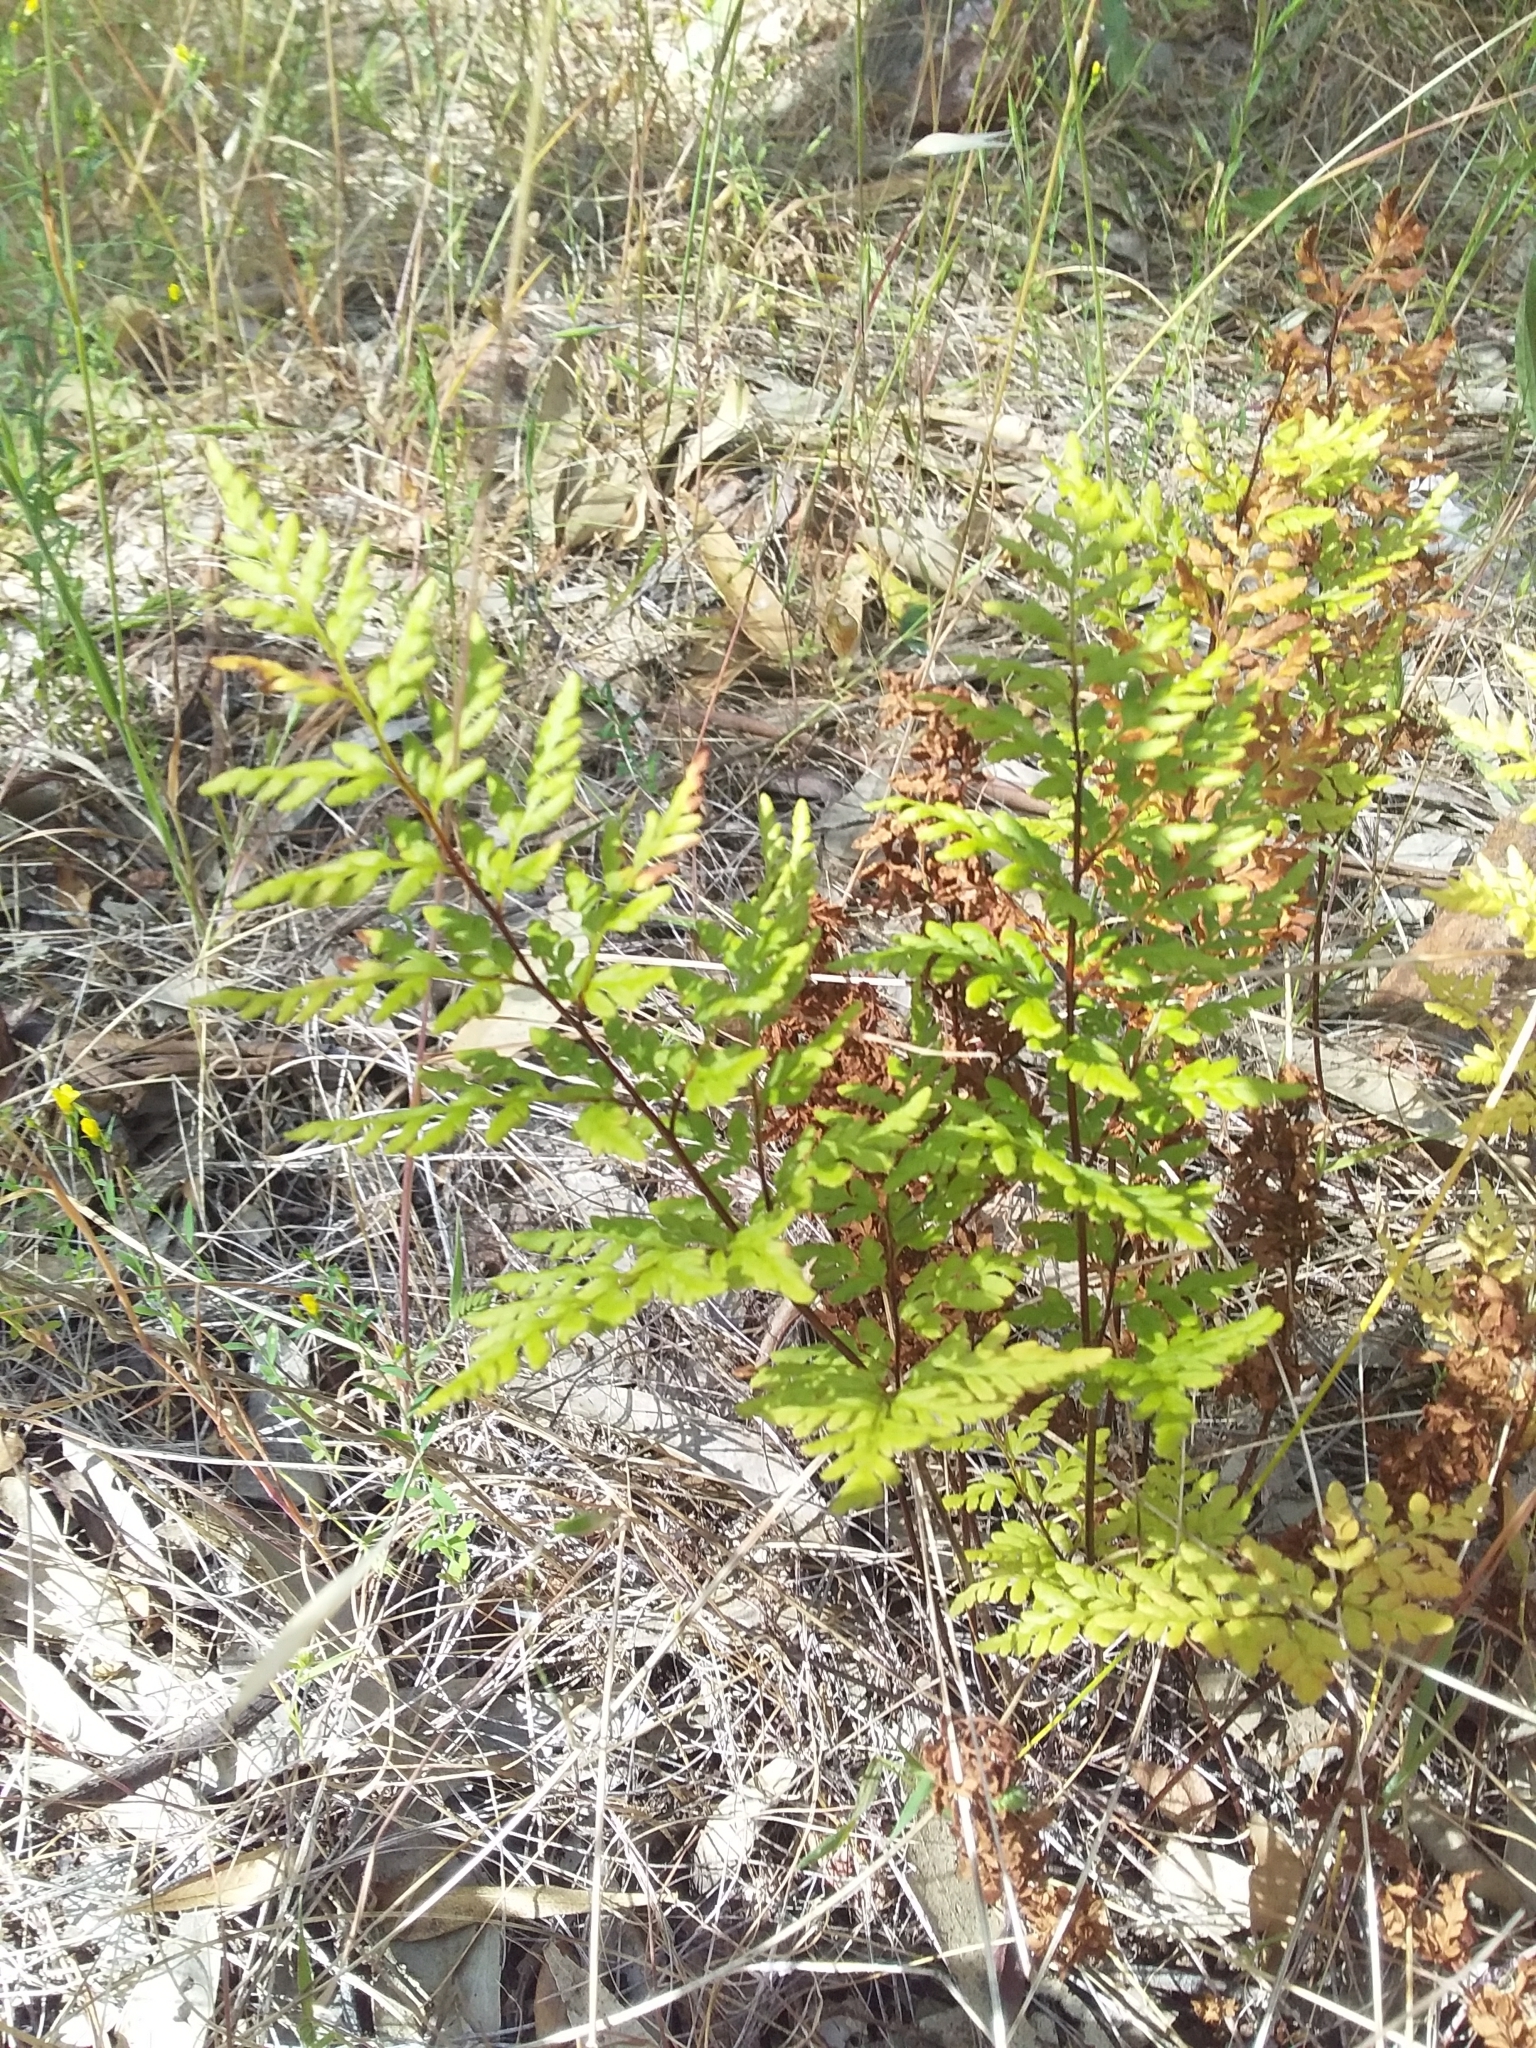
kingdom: Plantae
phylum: Tracheophyta
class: Polypodiopsida
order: Polypodiales
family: Pteridaceae
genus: Cheilanthes
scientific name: Cheilanthes austrotenuifolia
